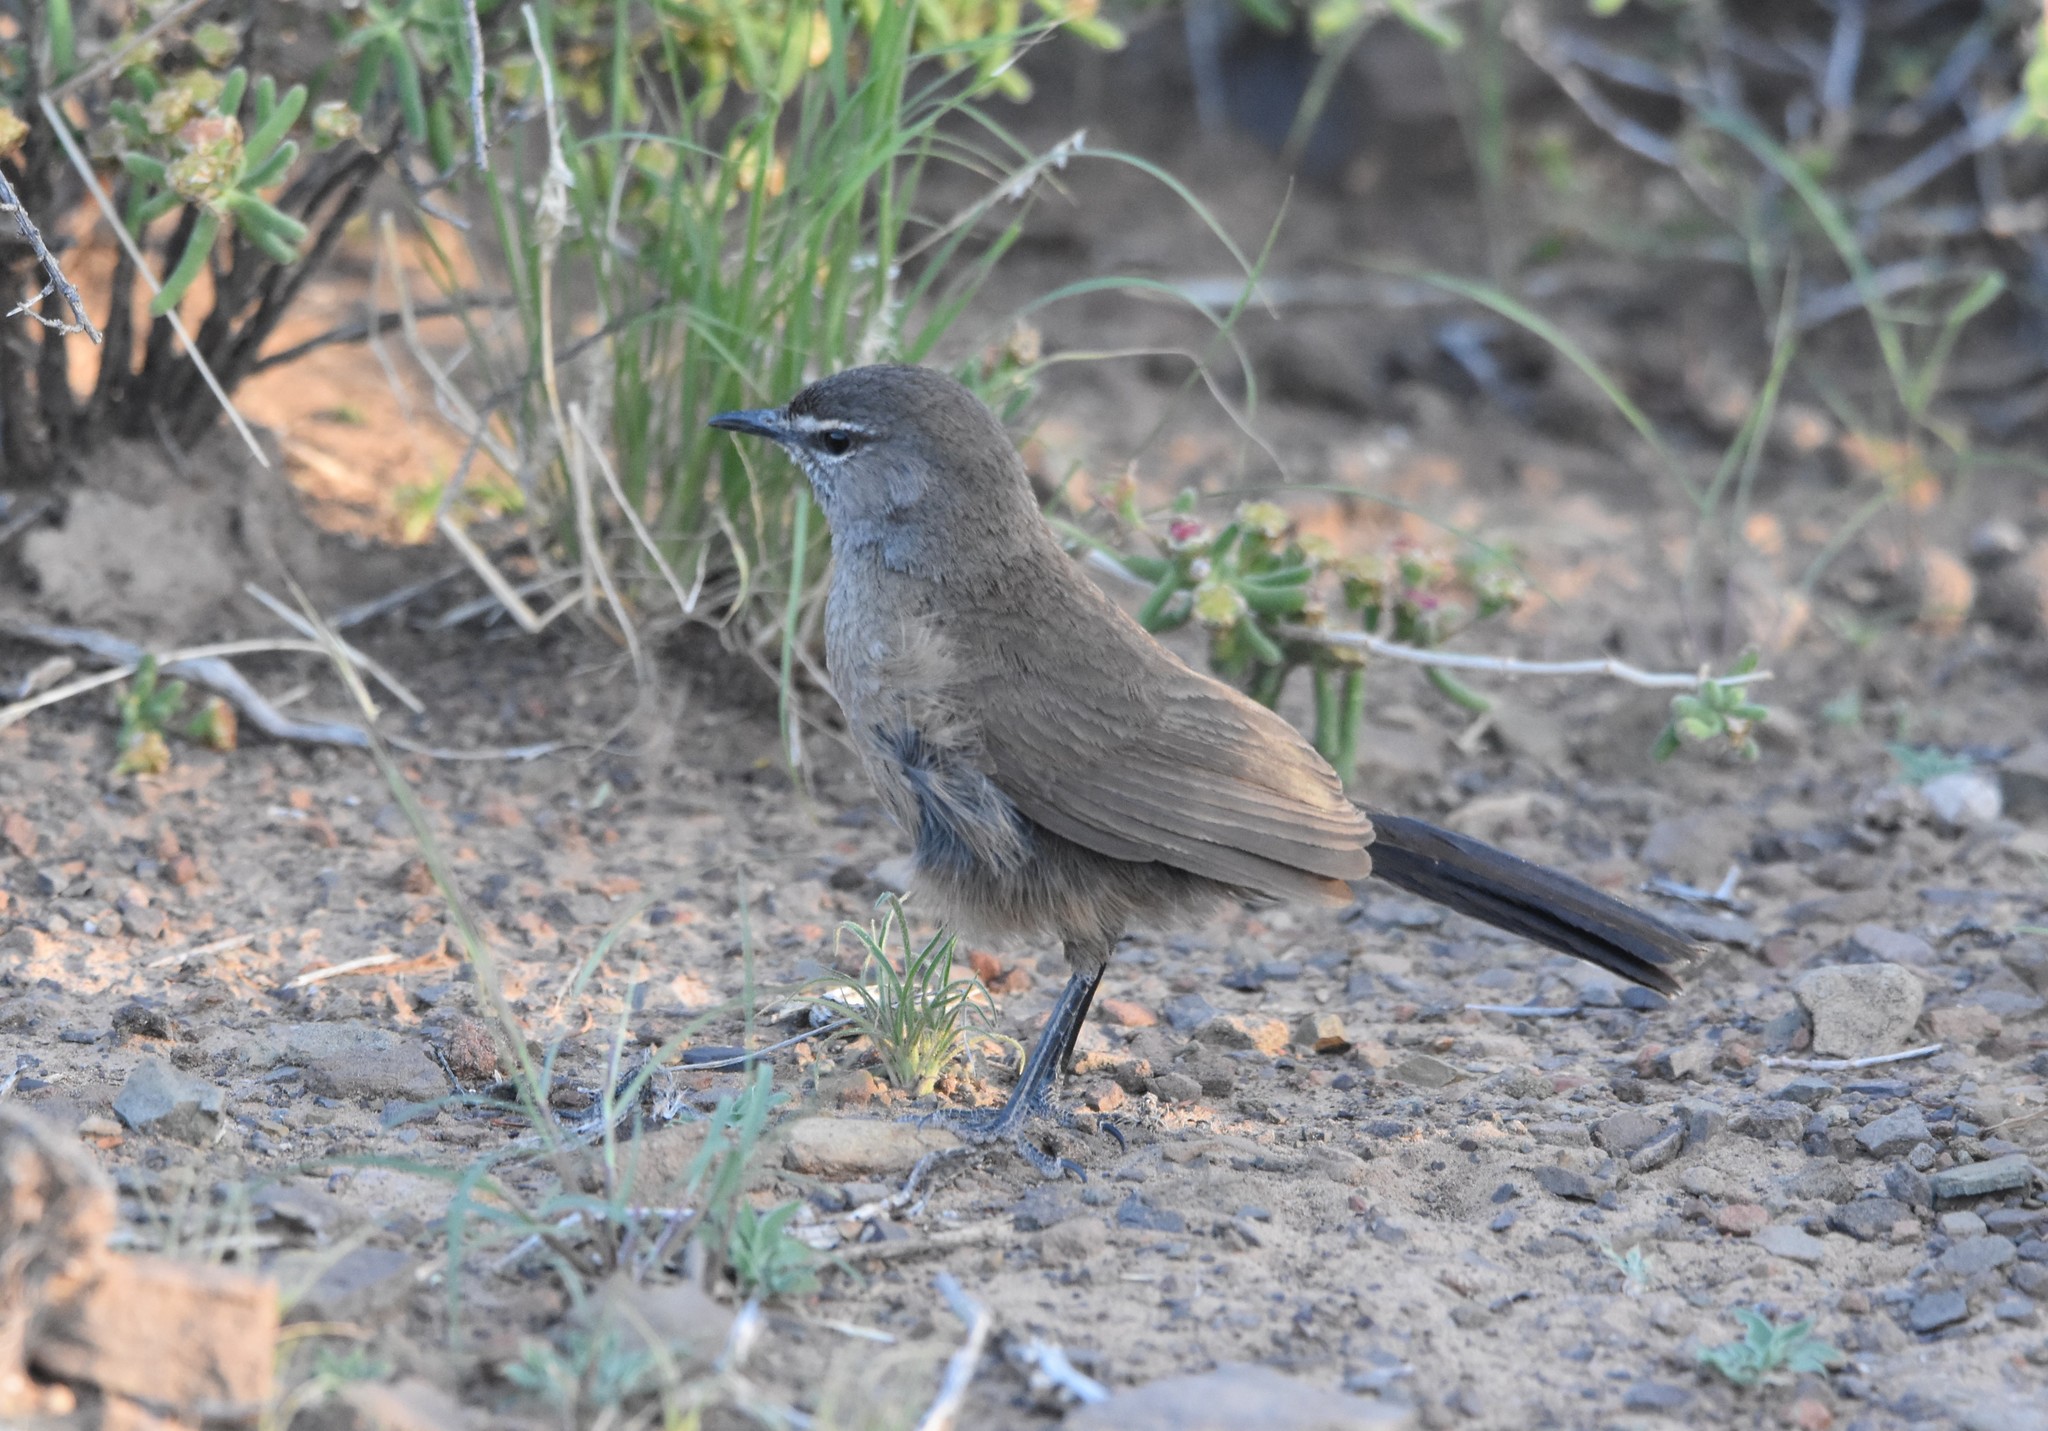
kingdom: Animalia
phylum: Chordata
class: Aves
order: Passeriformes
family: Muscicapidae
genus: Erythropygia
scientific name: Erythropygia coryphoeus
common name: Karoo scrub robin
